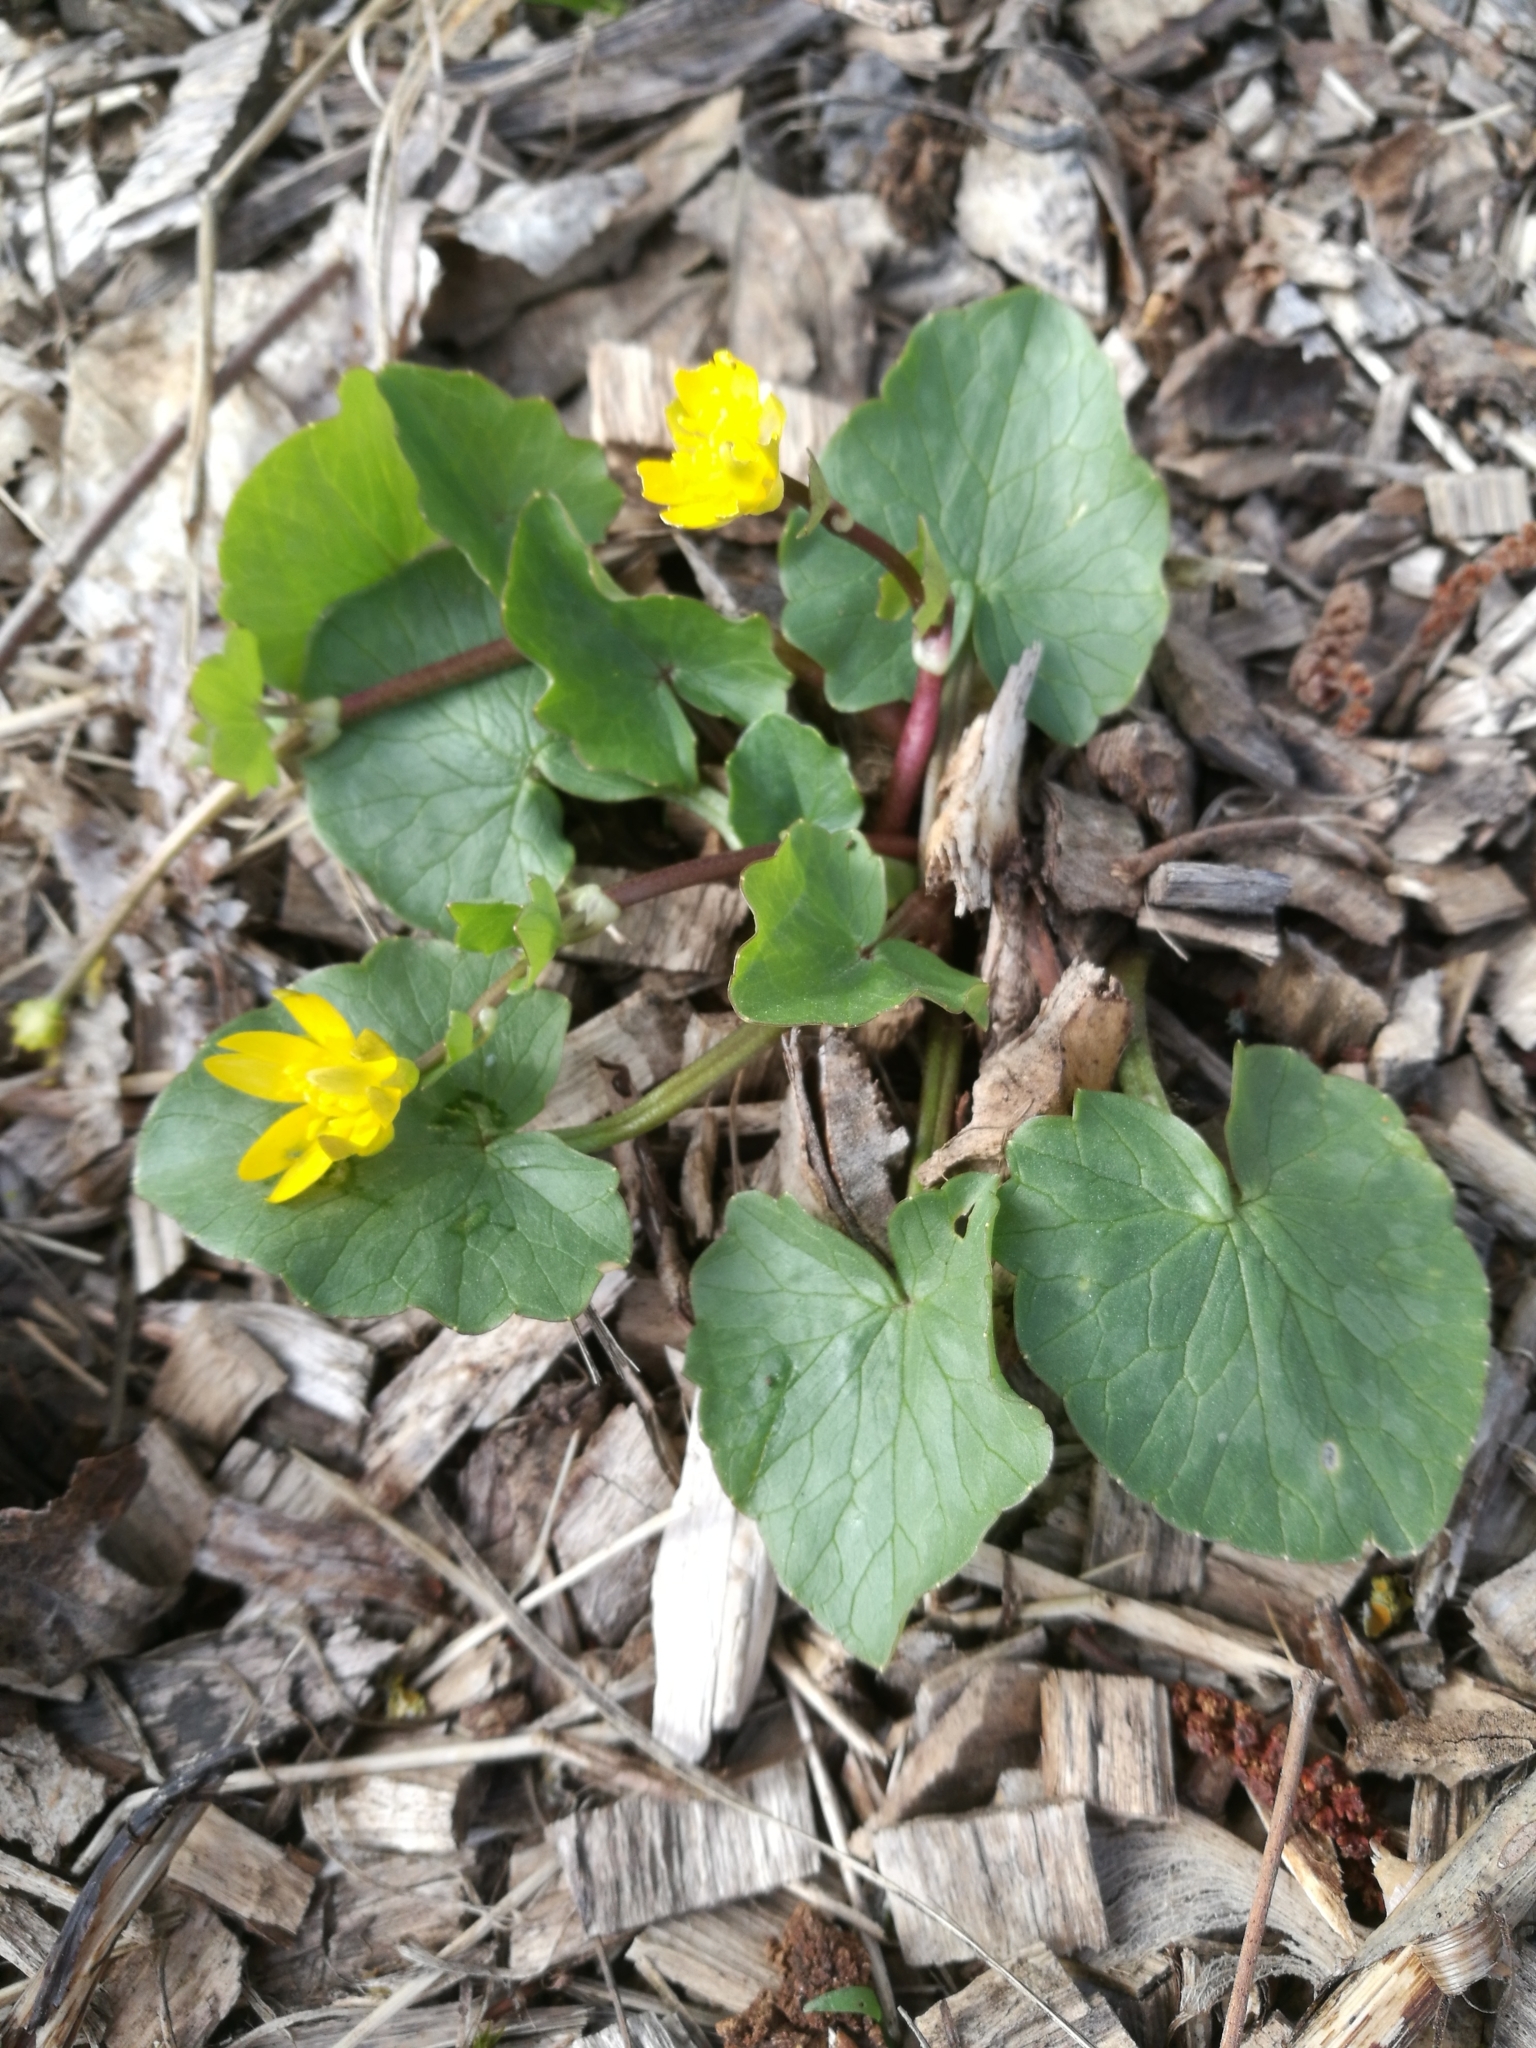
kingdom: Plantae
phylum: Tracheophyta
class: Magnoliopsida
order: Ranunculales
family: Ranunculaceae
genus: Ficaria
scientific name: Ficaria verna
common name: Lesser celandine
